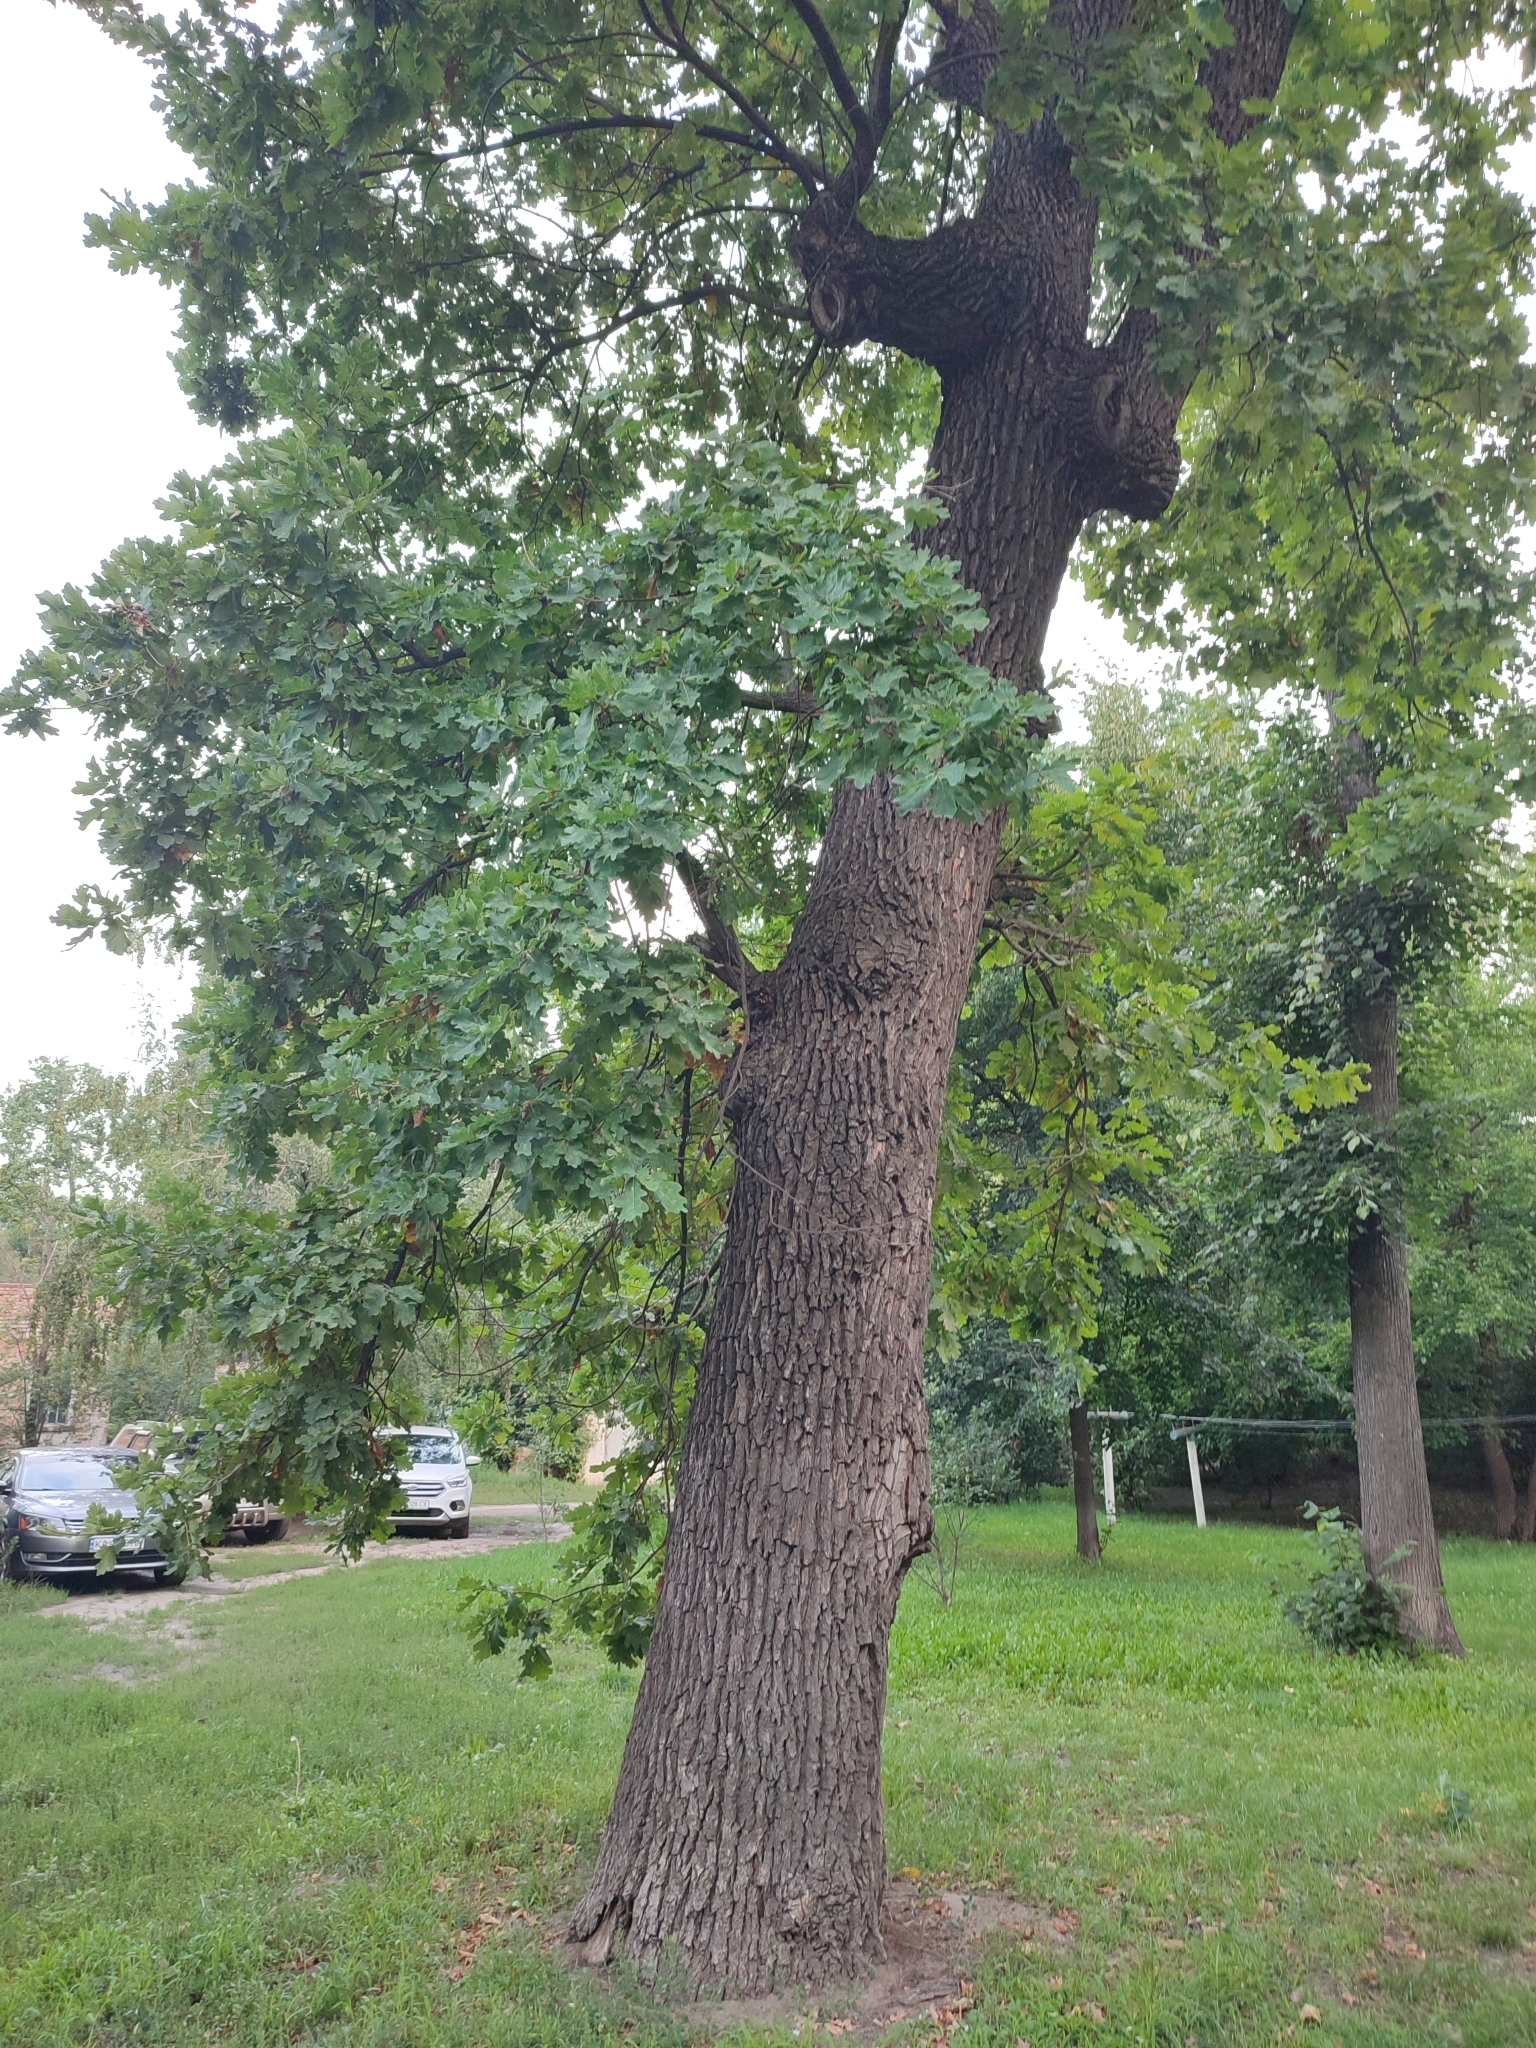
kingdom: Plantae
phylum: Tracheophyta
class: Magnoliopsida
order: Fagales
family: Fagaceae
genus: Quercus
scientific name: Quercus robur
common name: Pedunculate oak
